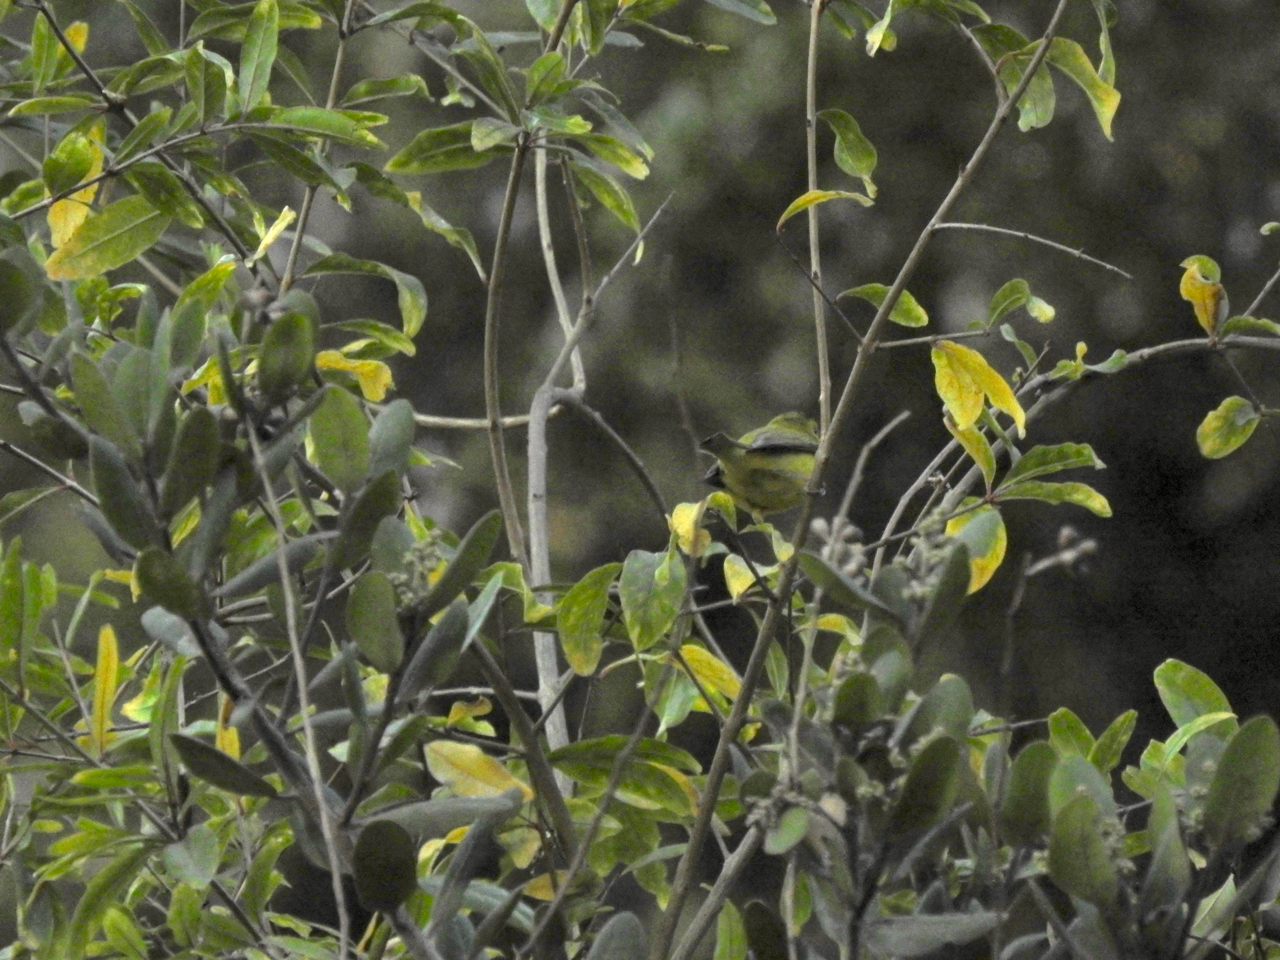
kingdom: Animalia
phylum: Chordata
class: Aves
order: Passeriformes
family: Parulidae
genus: Cardellina
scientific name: Cardellina pusilla
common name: Wilson's warbler
